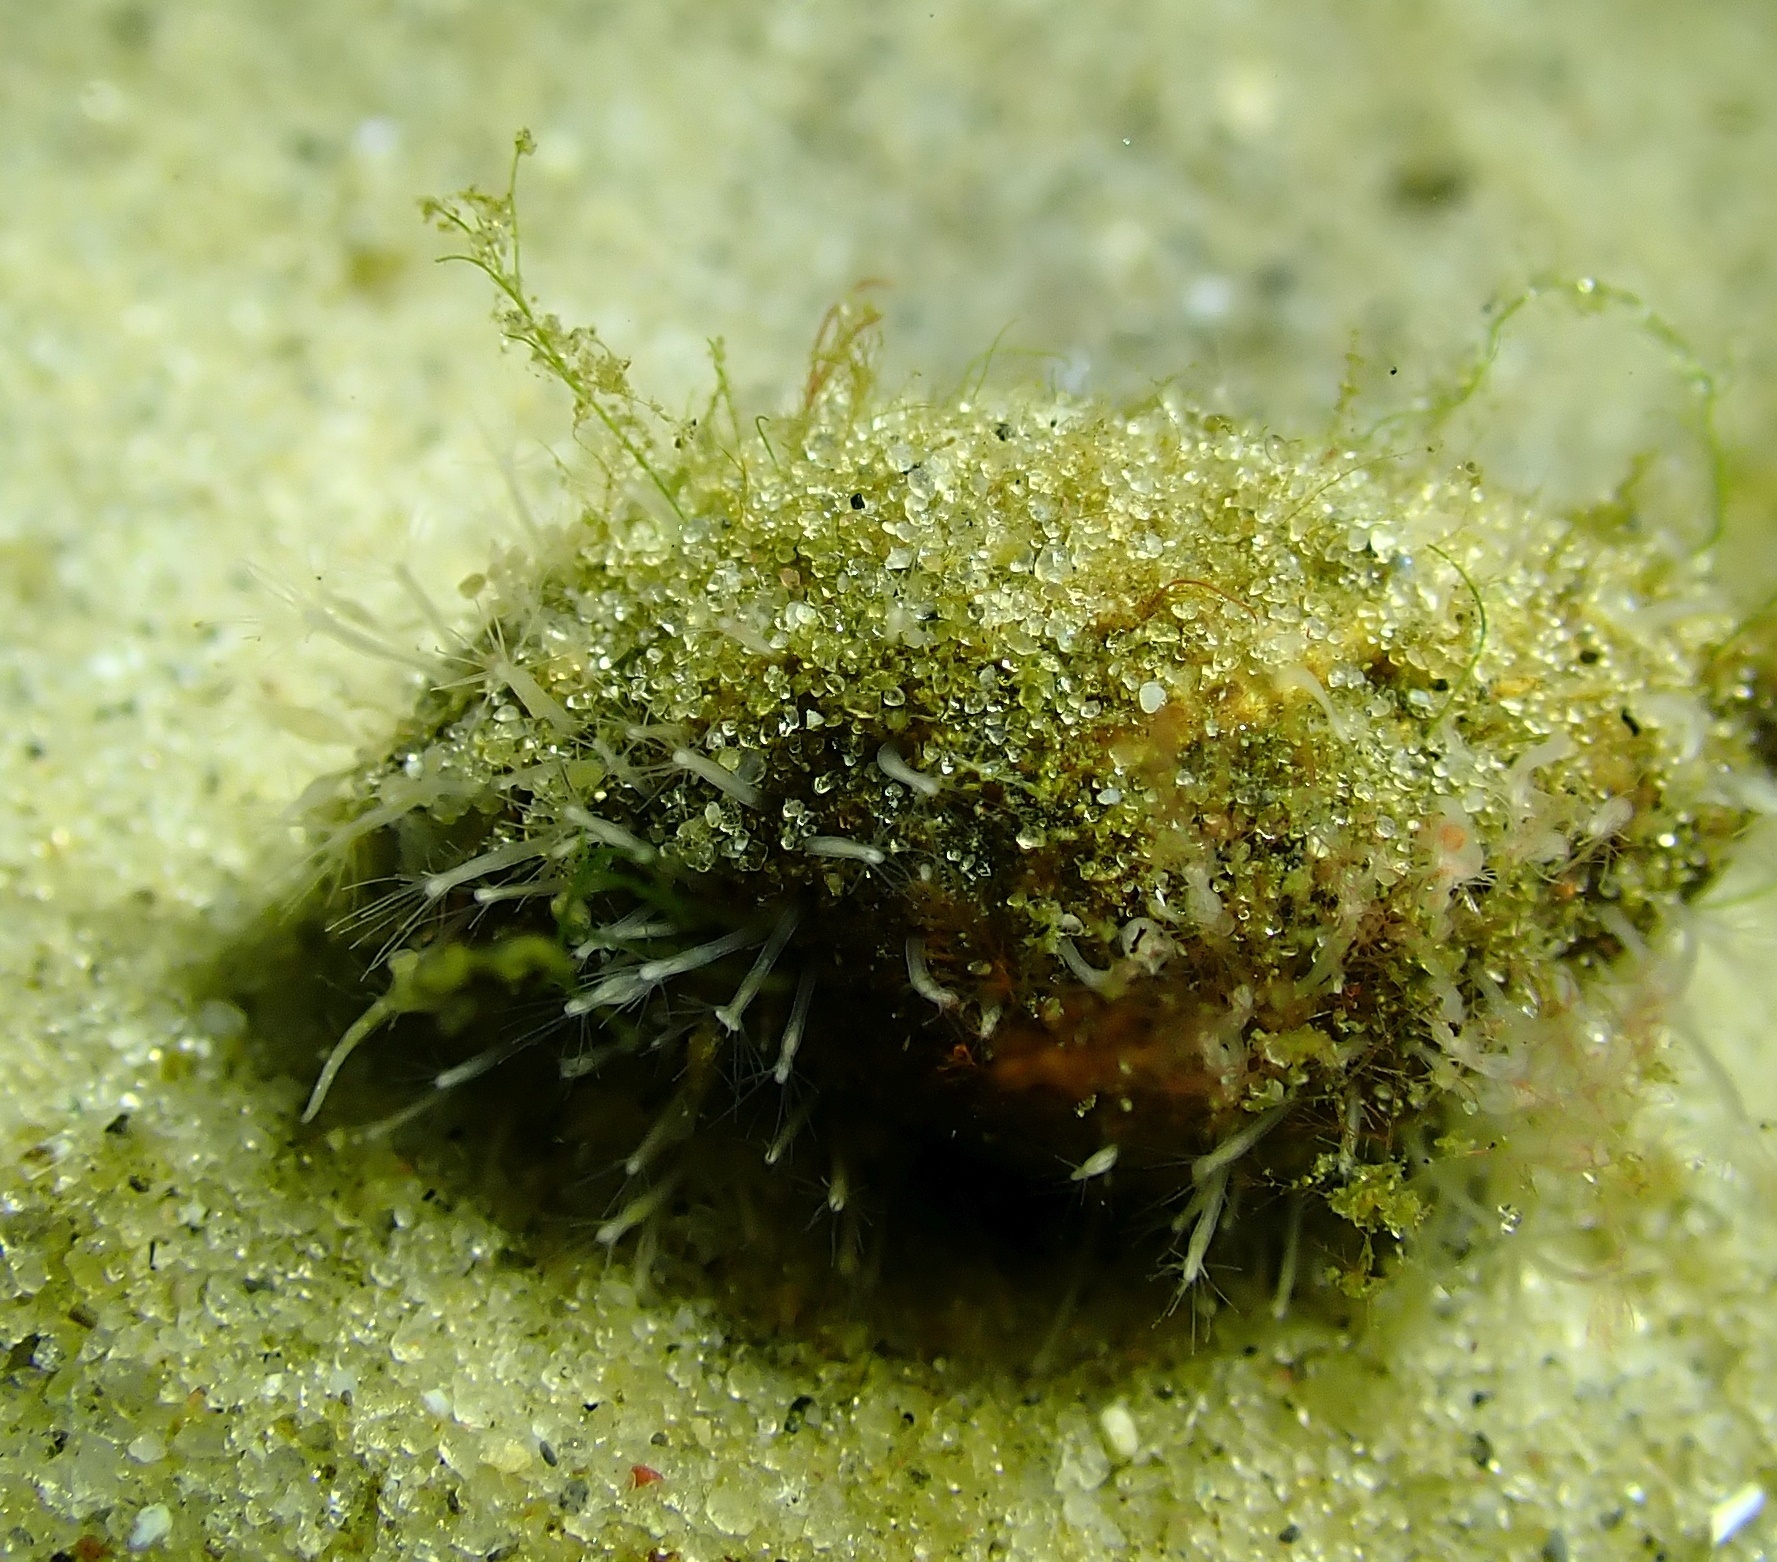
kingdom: Animalia
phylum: Cnidaria
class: Hydrozoa
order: Anthoathecata
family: Hydractiniidae
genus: Hydractinia
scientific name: Hydractinia echinata
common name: Rough hydroid
